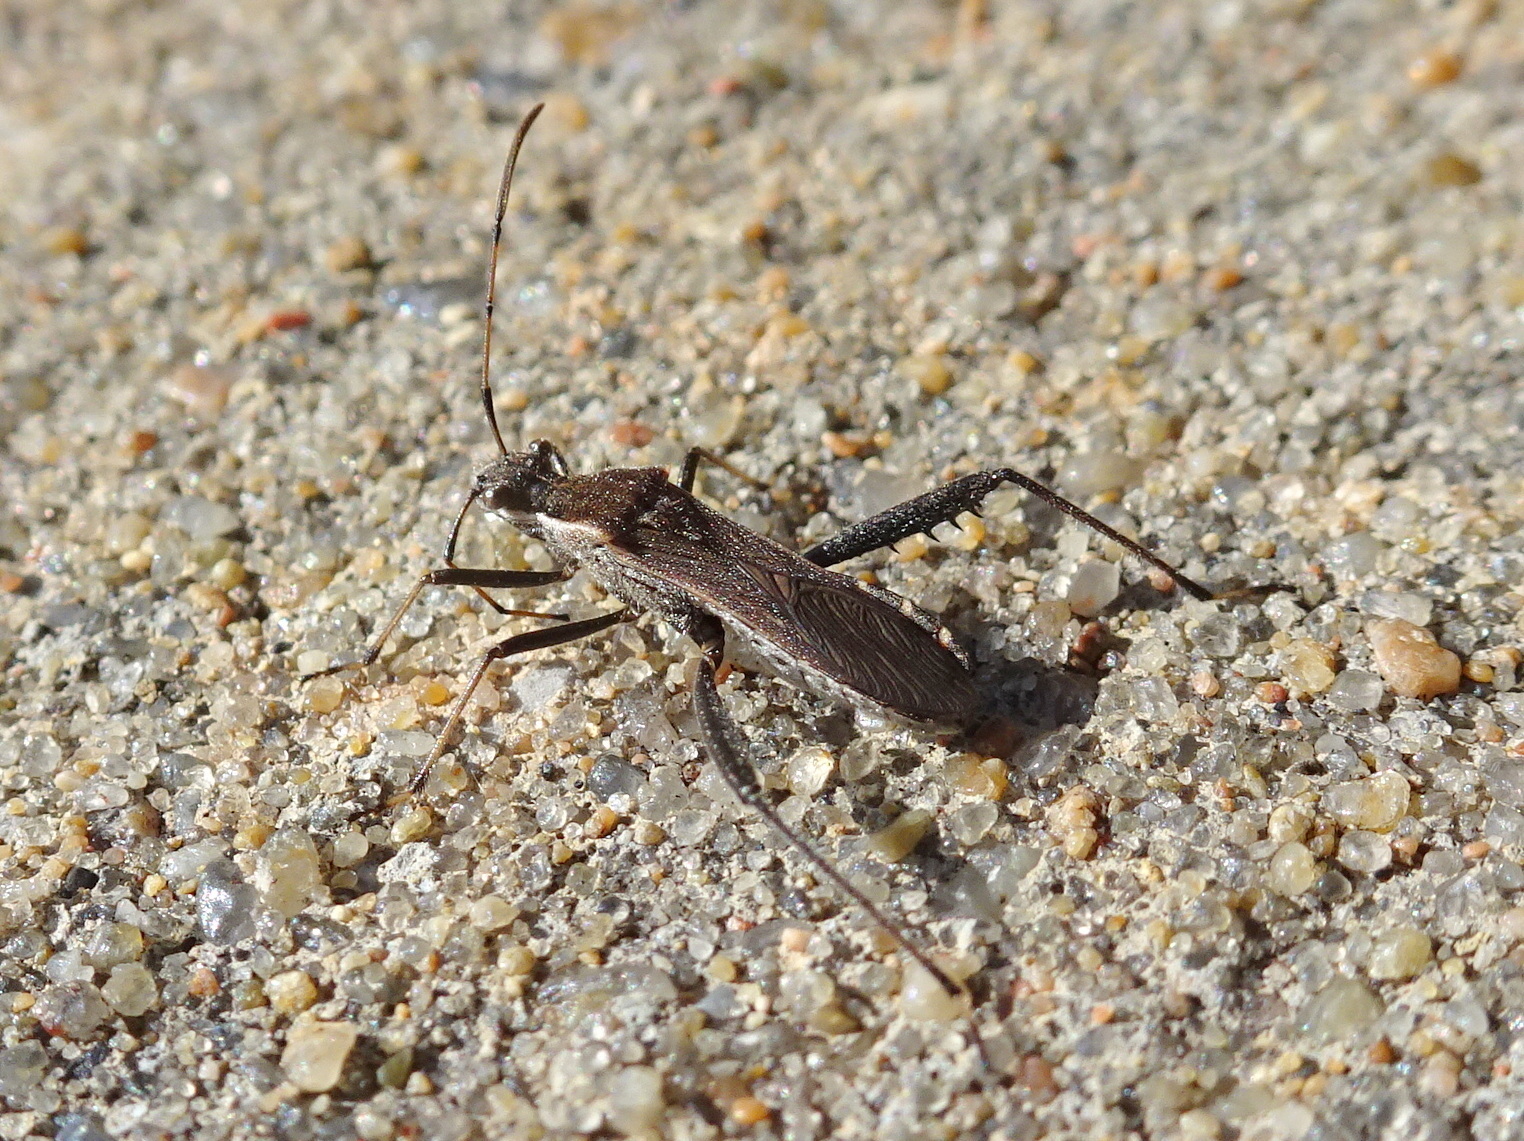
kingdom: Animalia
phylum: Arthropoda
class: Insecta
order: Hemiptera
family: Alydidae
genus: Alydus
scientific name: Alydus pilosulus
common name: Broad-headed bug
